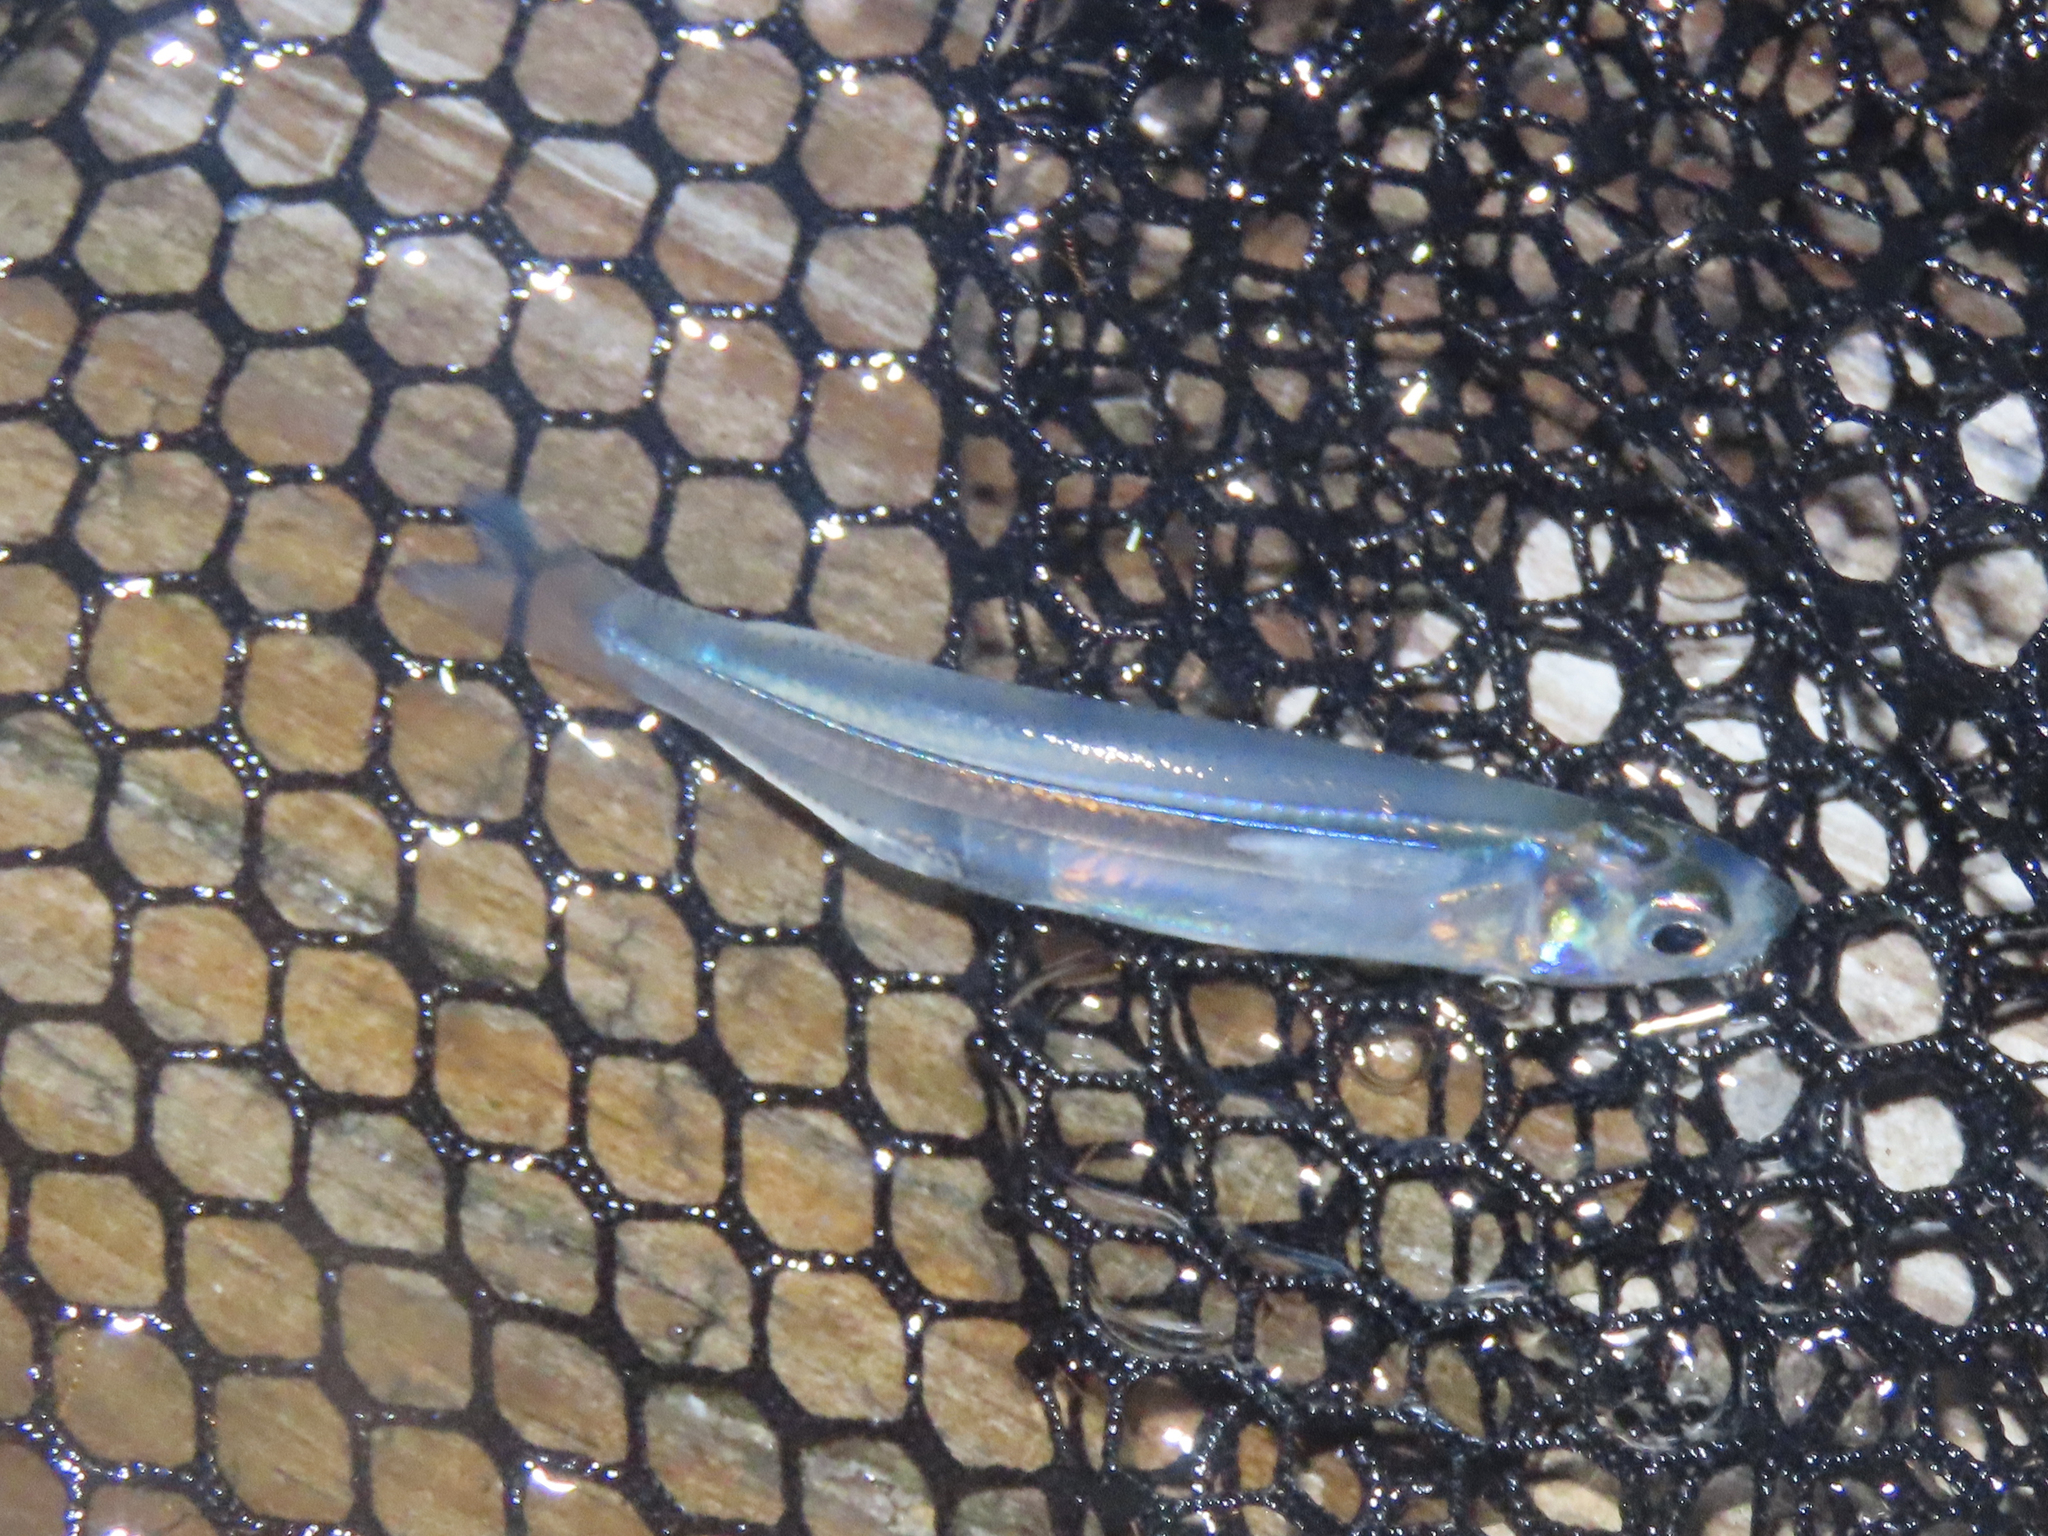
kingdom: Animalia
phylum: Chordata
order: Atheriniformes
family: Atherinopsidae
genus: Membras
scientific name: Membras martinica
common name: Rough silverside
